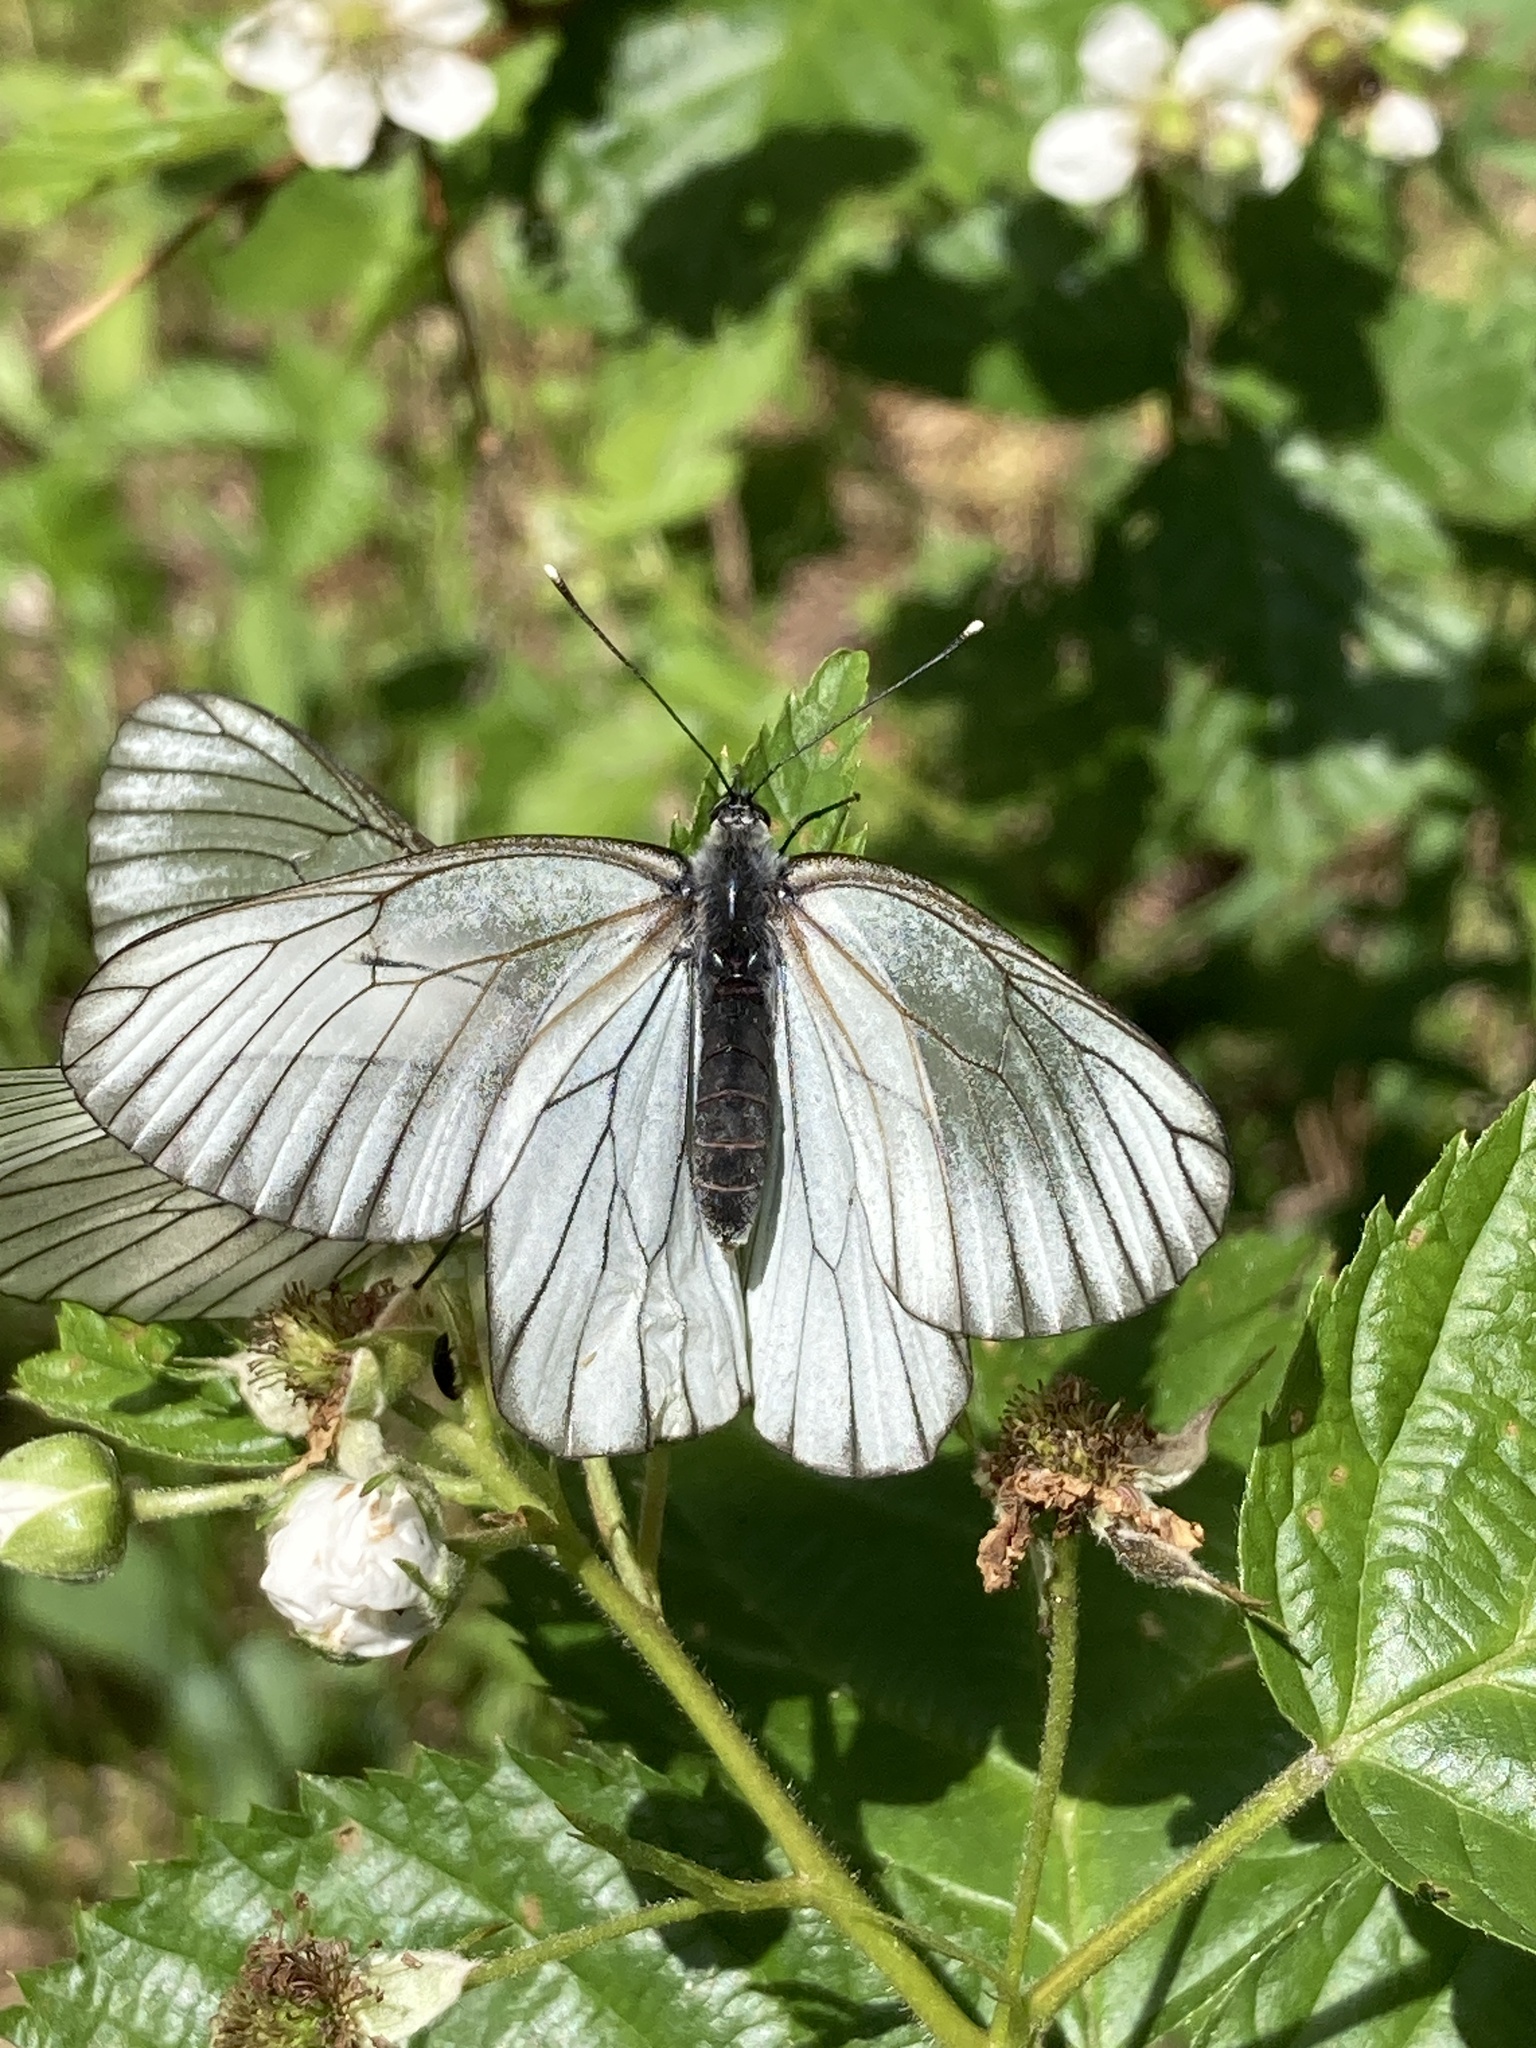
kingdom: Animalia
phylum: Arthropoda
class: Insecta
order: Lepidoptera
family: Pieridae
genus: Aporia
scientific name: Aporia crataegi
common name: Black-veined white
